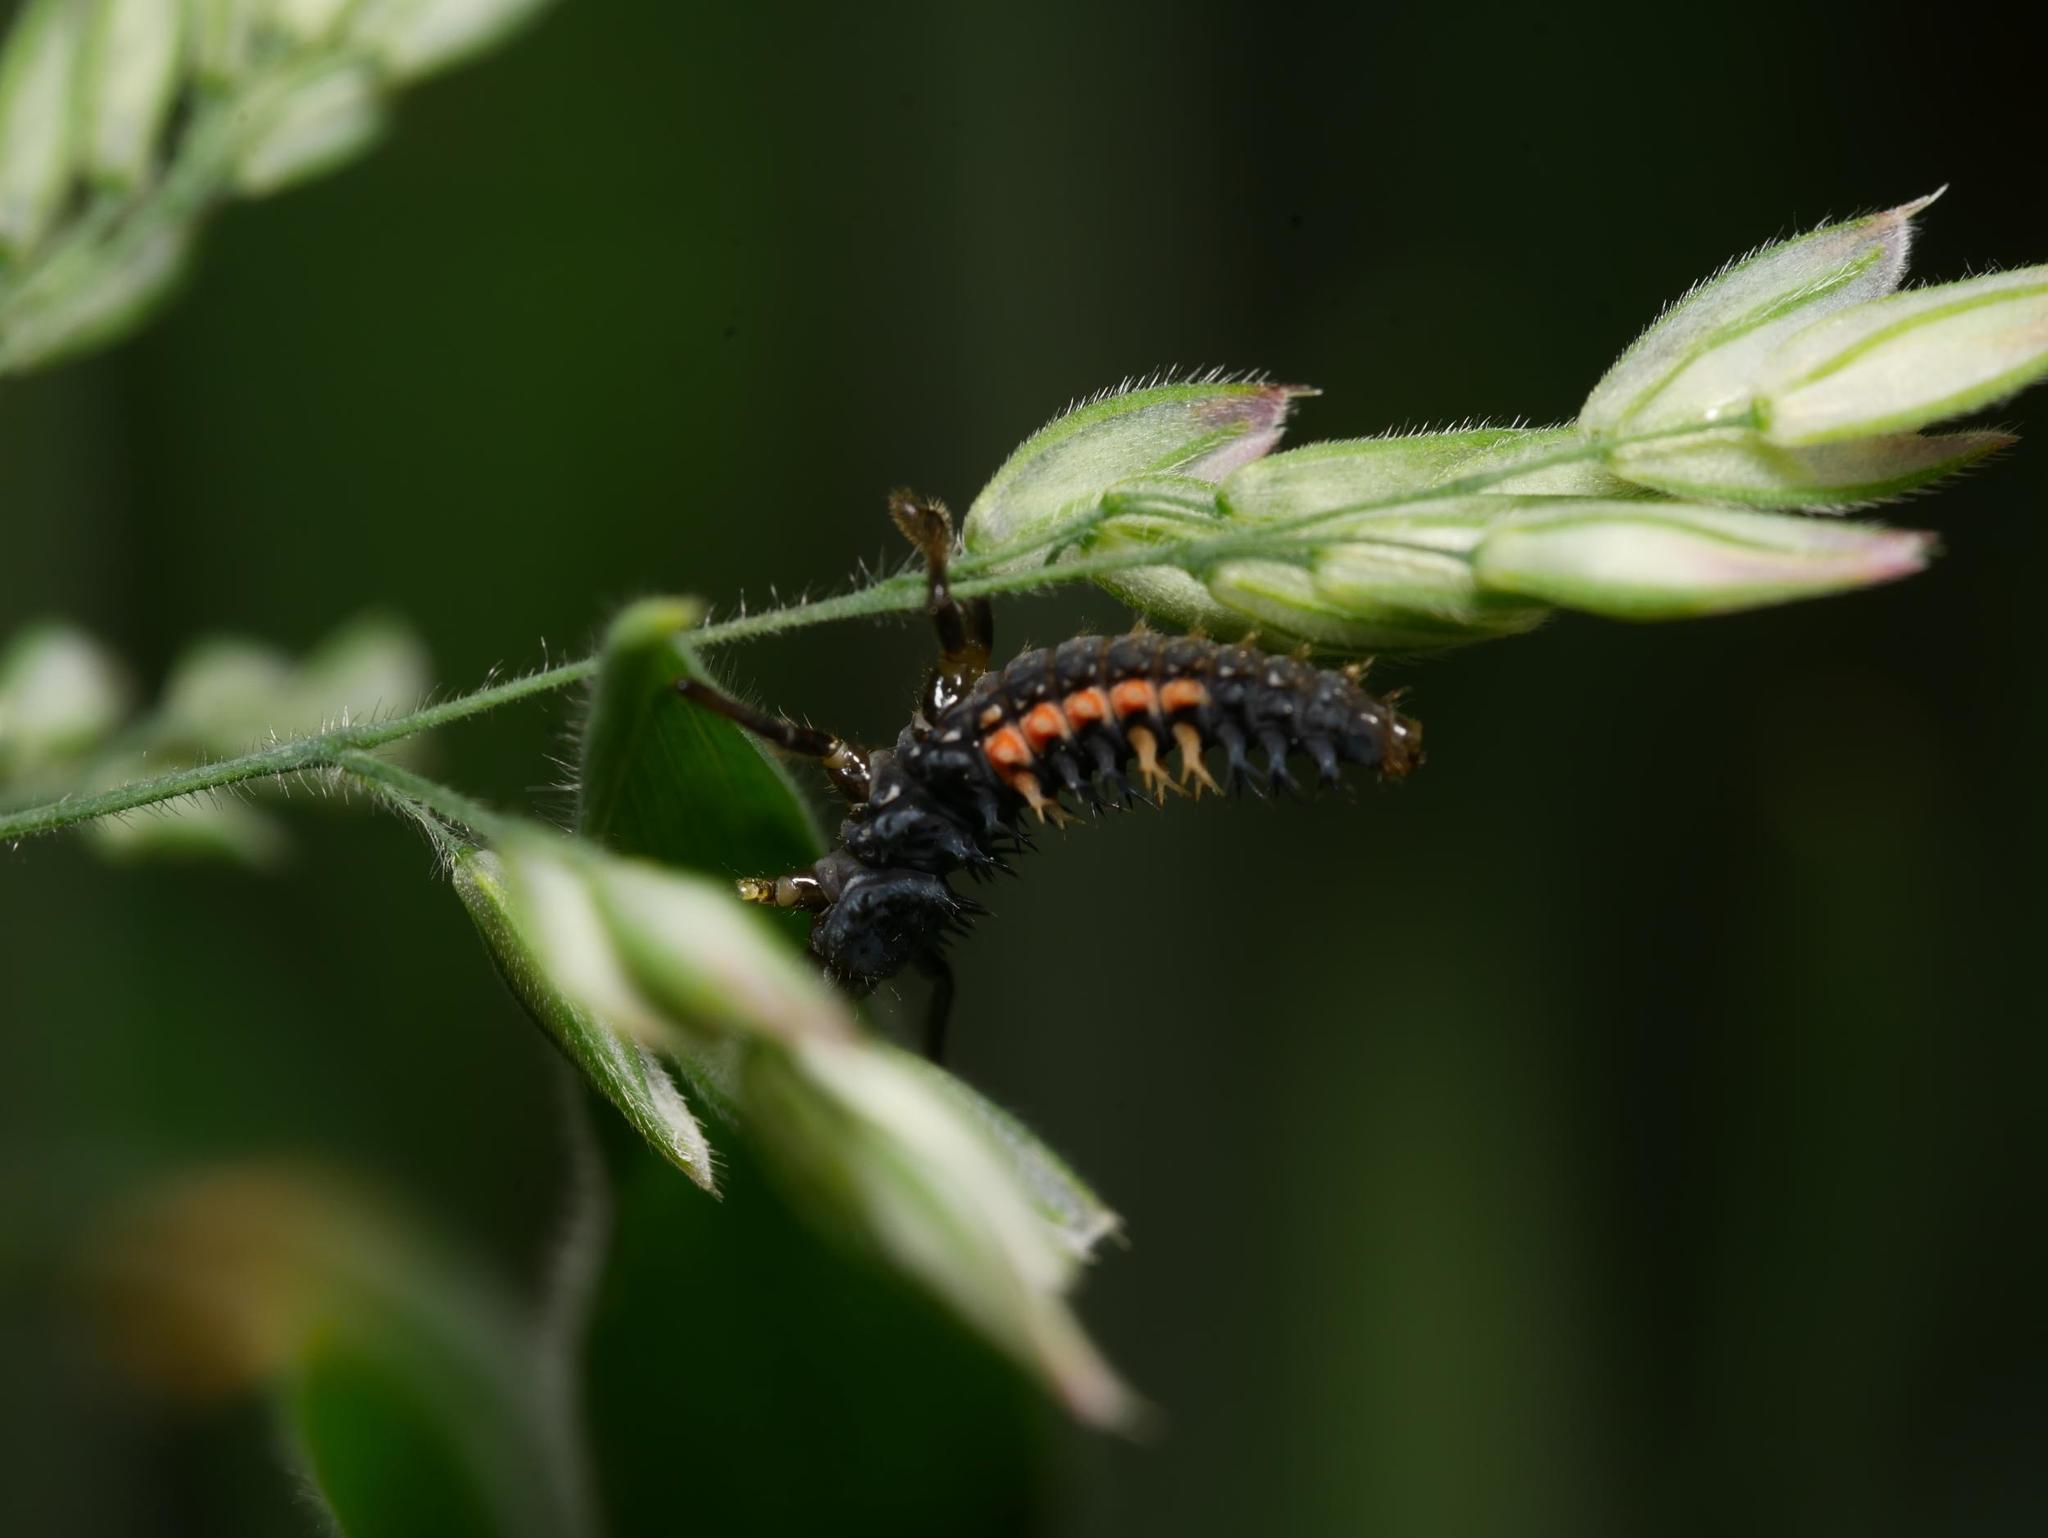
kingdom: Animalia
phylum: Arthropoda
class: Insecta
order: Coleoptera
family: Coccinellidae
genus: Harmonia
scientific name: Harmonia axyridis
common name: Harlequin ladybird
